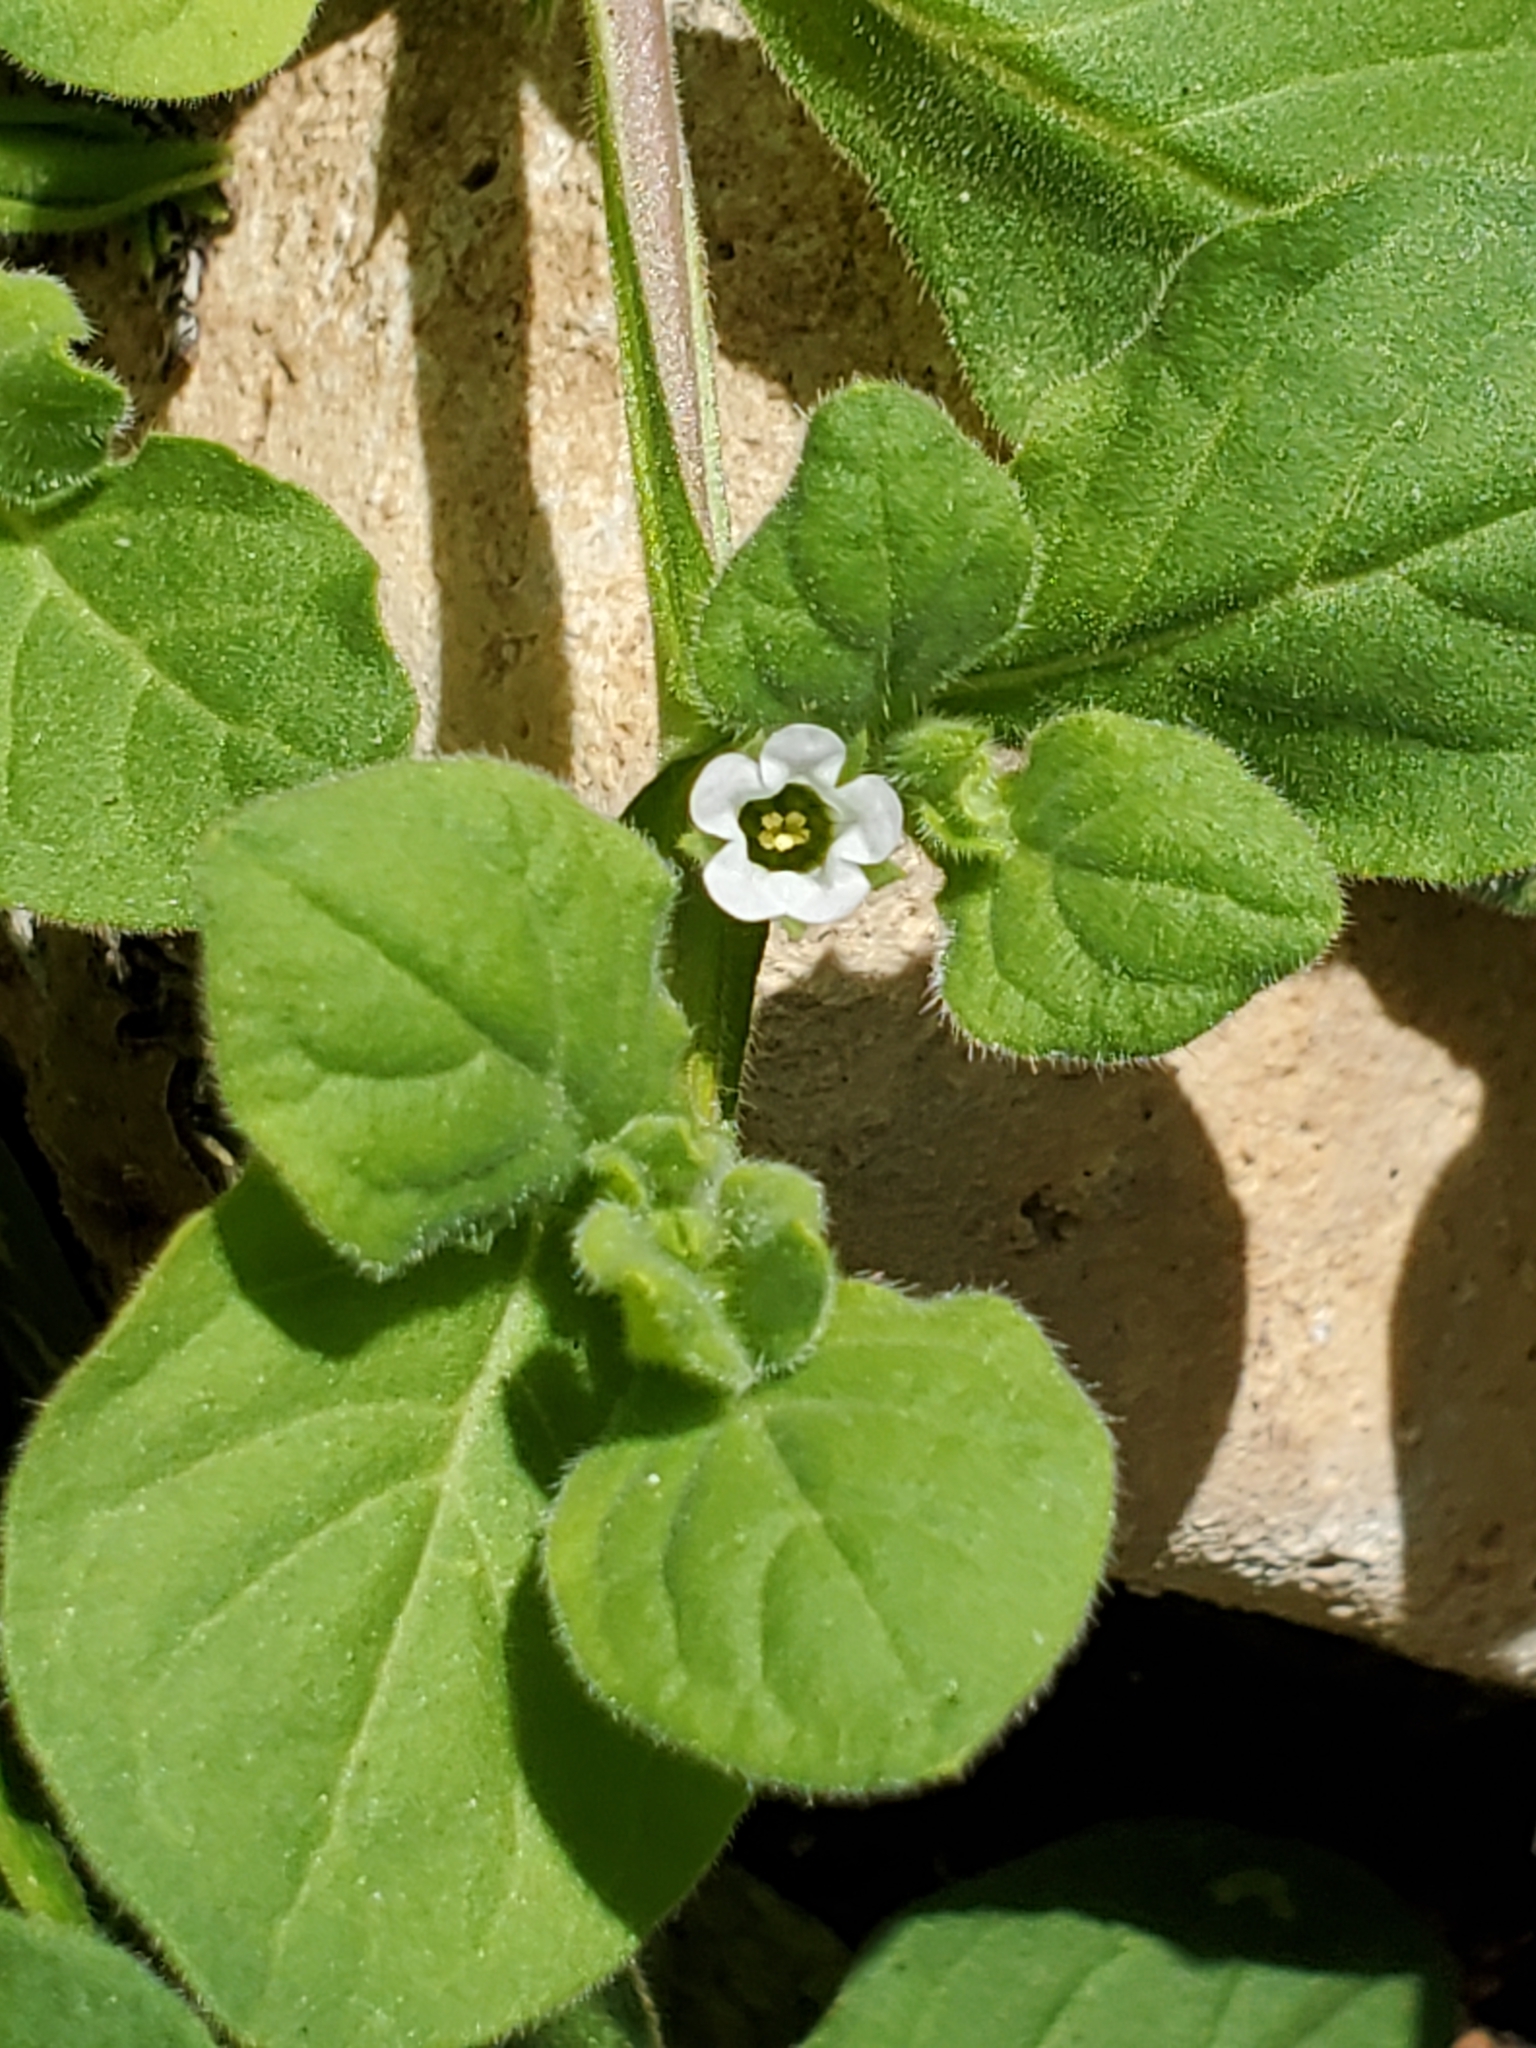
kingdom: Plantae
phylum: Tracheophyta
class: Magnoliopsida
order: Boraginales
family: Namaceae
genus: Nama
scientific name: Nama jamaicensis
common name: Jamaicanweed
